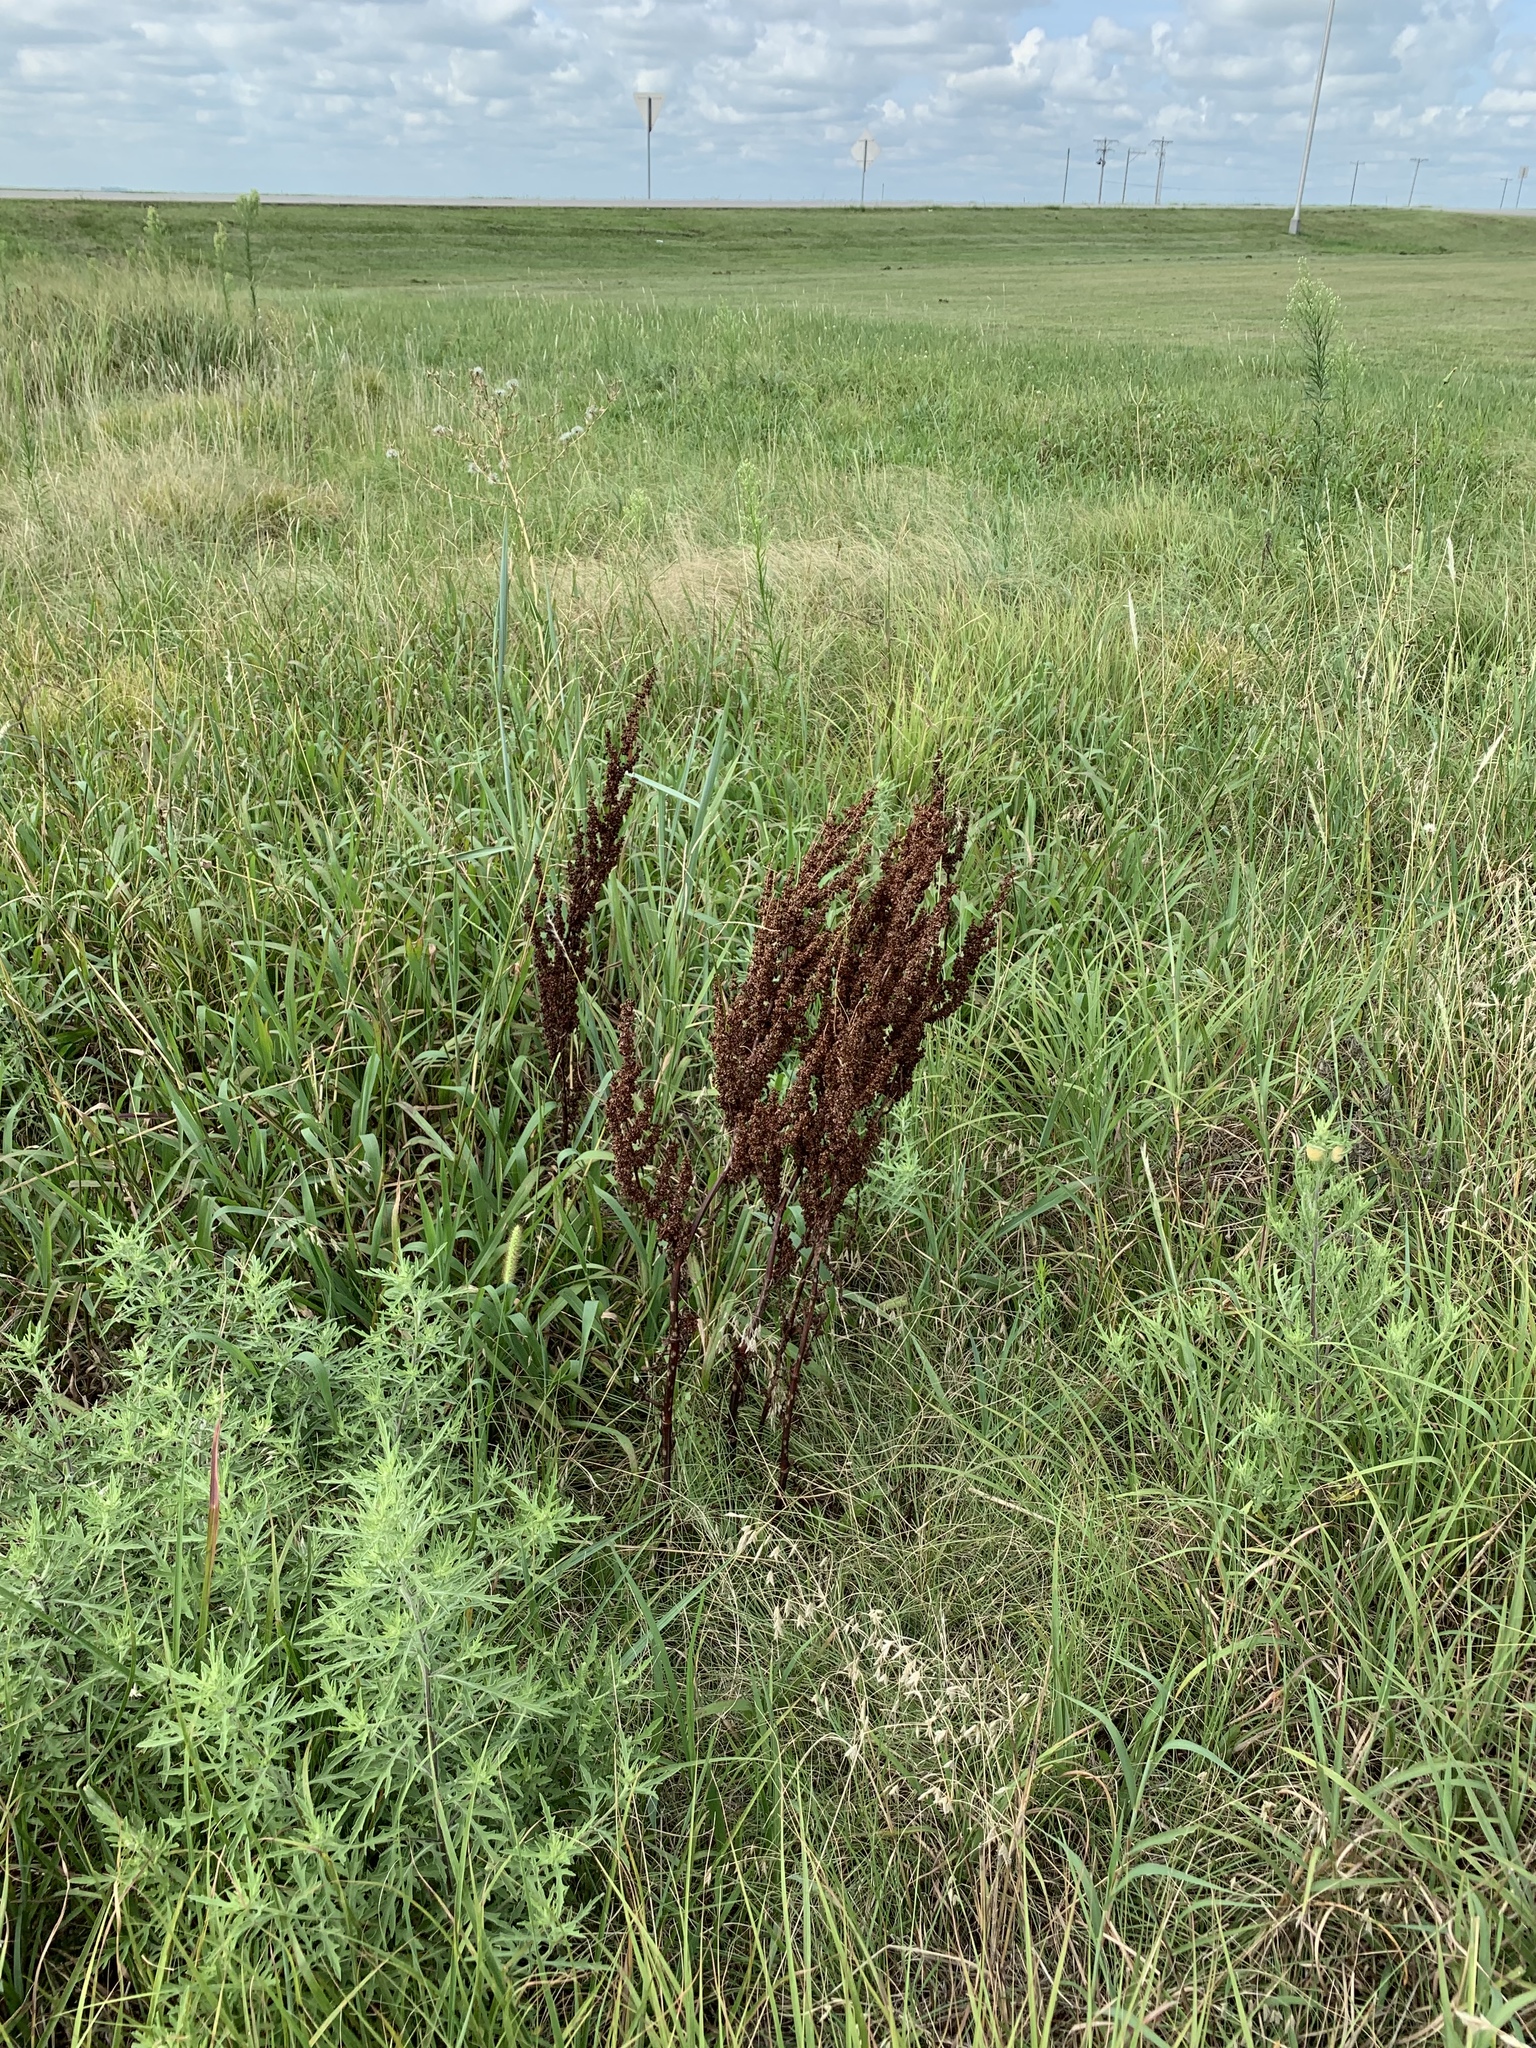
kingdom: Plantae
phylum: Tracheophyta
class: Magnoliopsida
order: Caryophyllales
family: Polygonaceae
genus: Rumex
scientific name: Rumex crispus
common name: Curled dock
